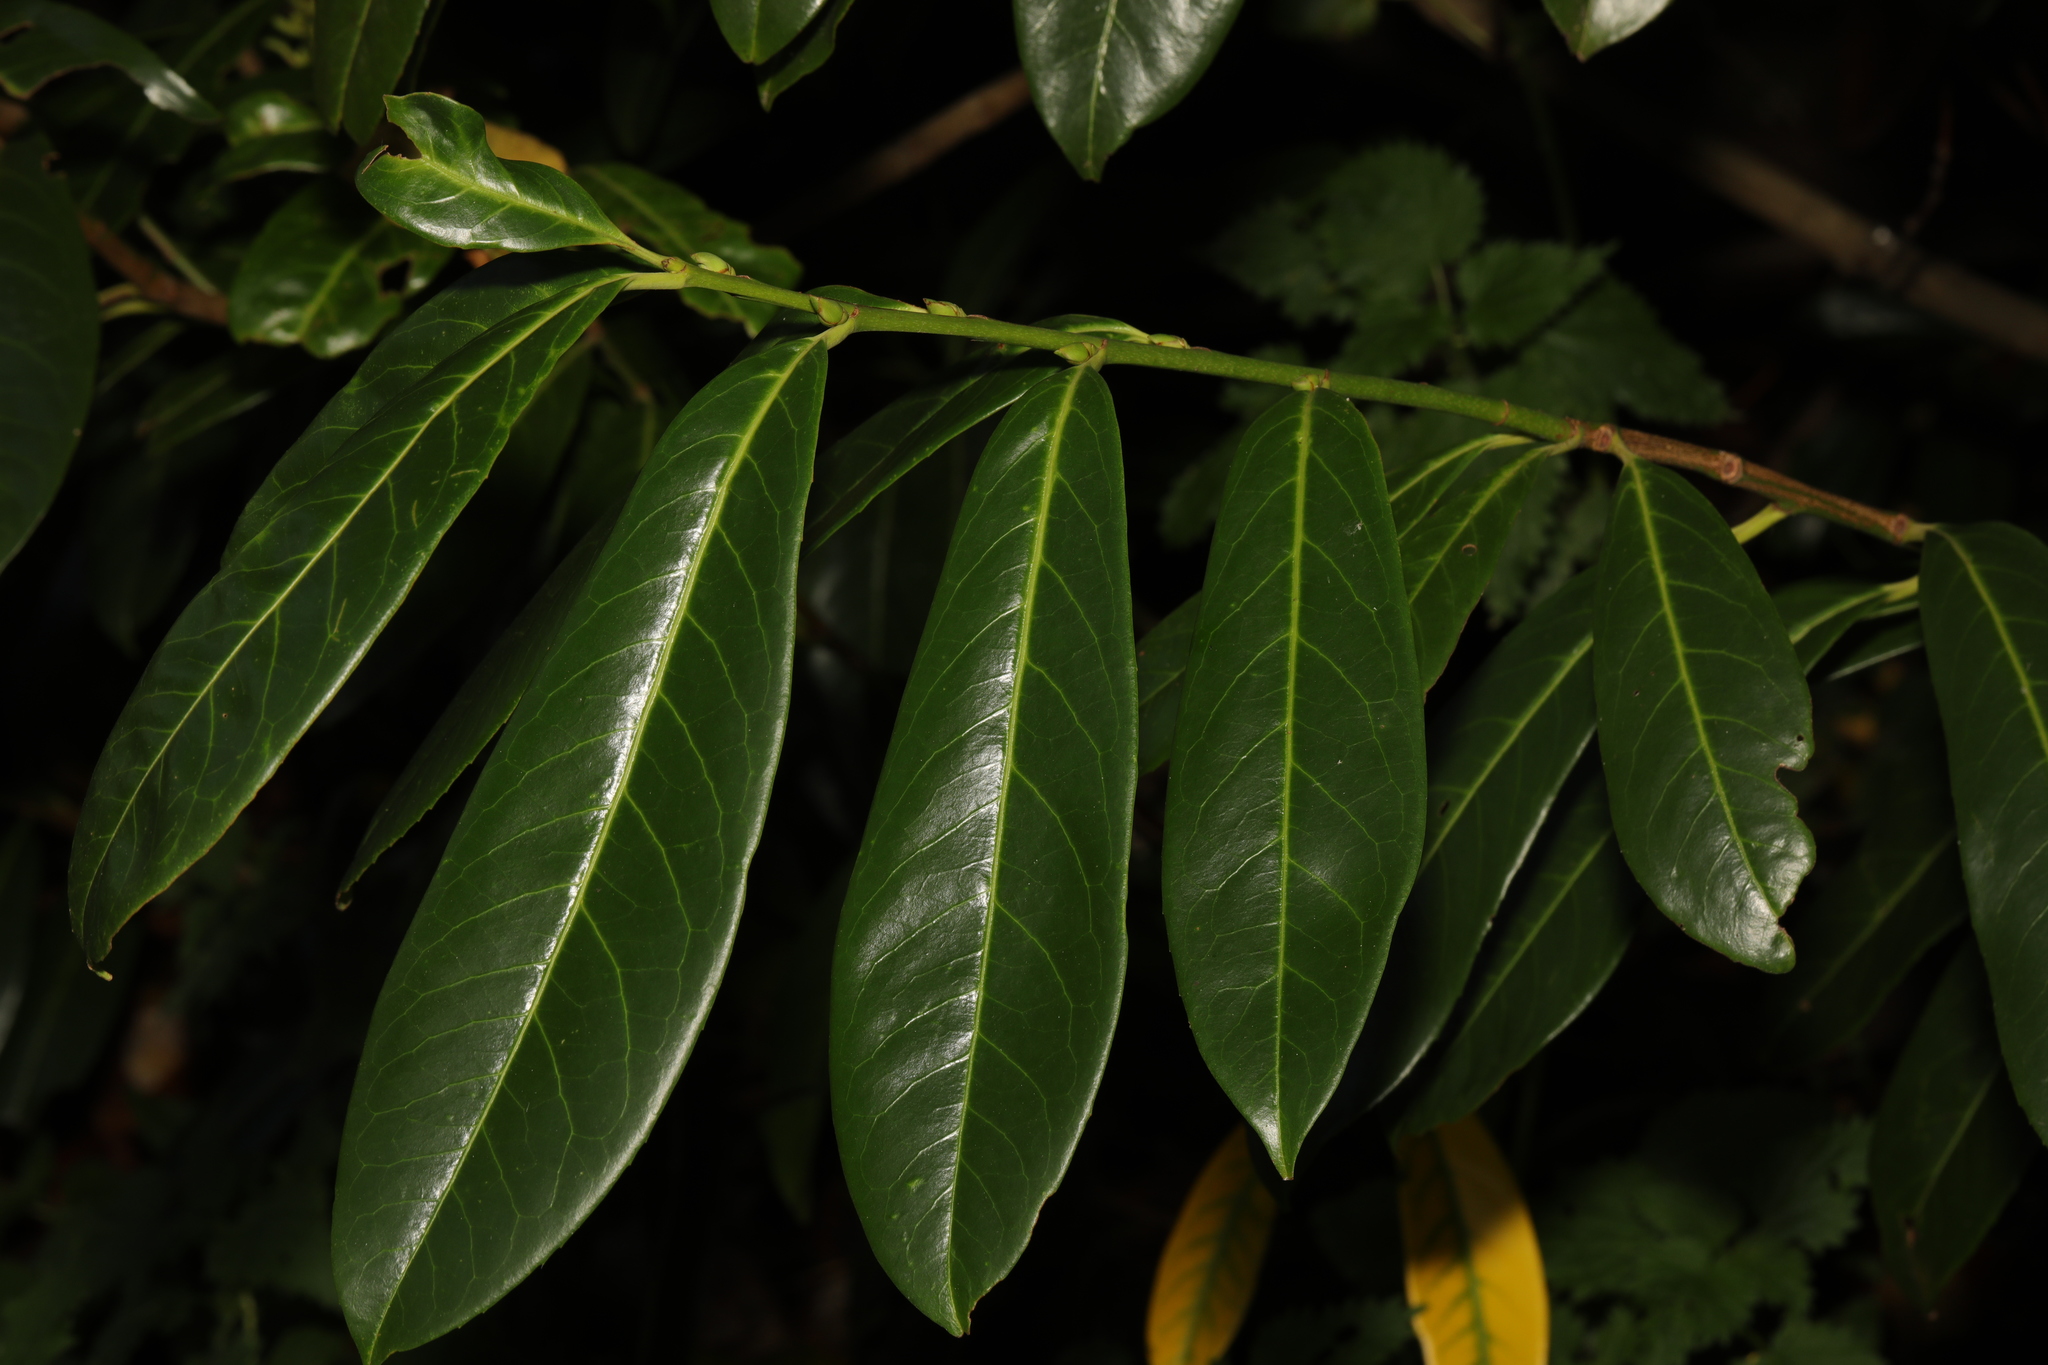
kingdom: Plantae
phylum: Tracheophyta
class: Magnoliopsida
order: Rosales
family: Rosaceae
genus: Prunus
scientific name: Prunus laurocerasus
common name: Cherry laurel
